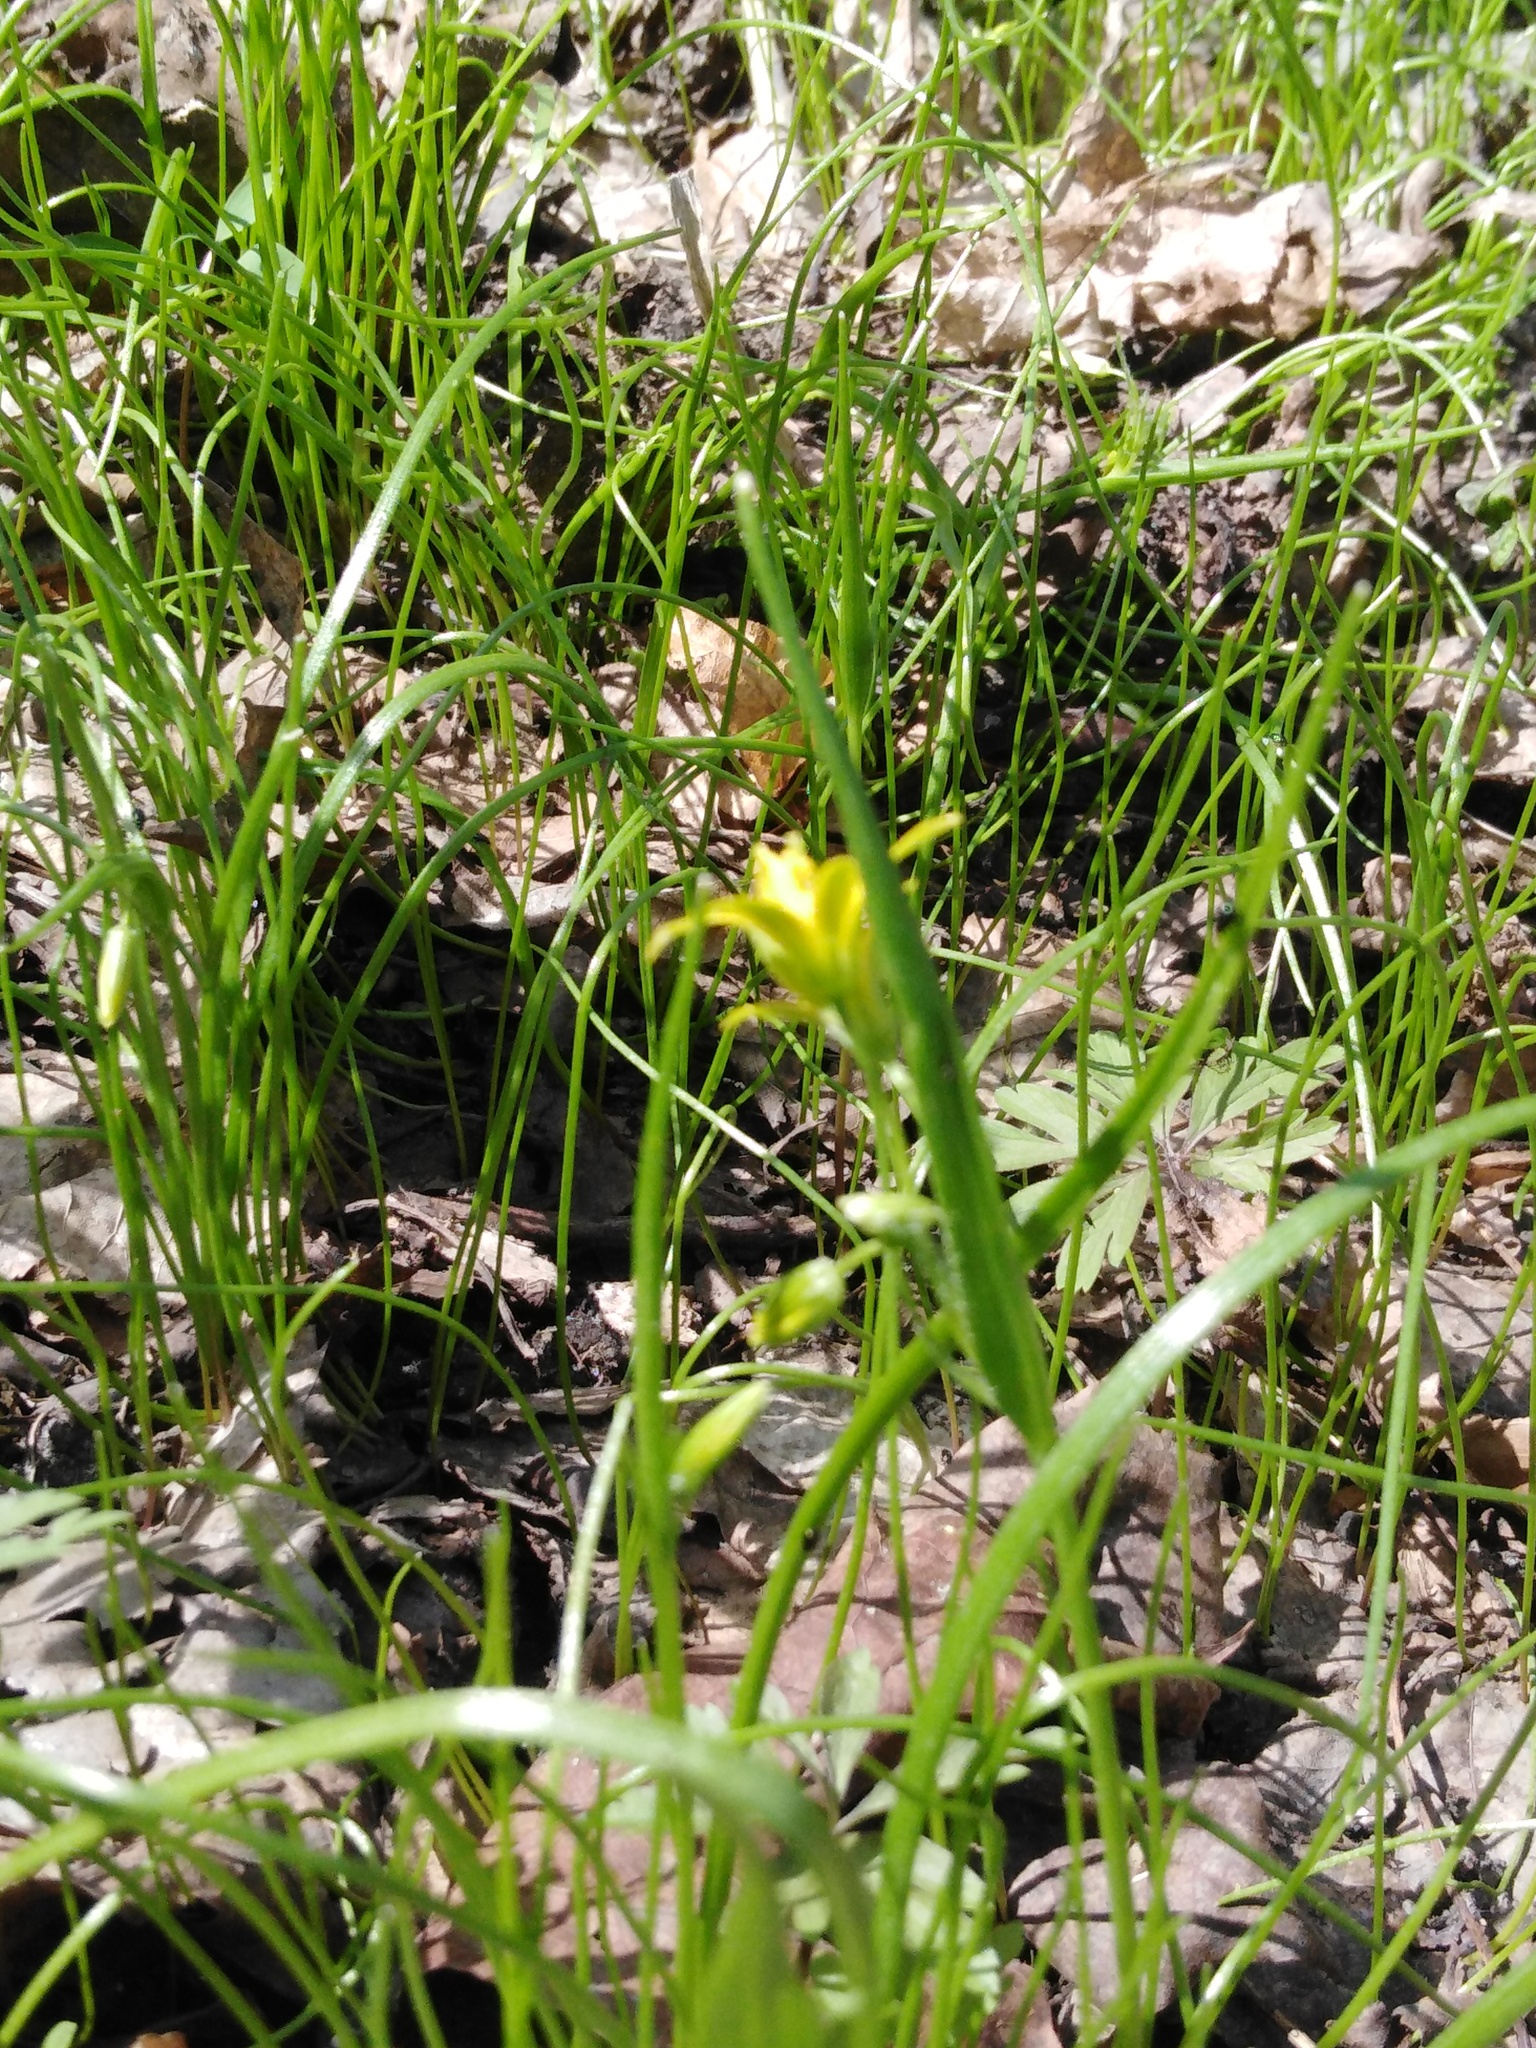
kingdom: Plantae
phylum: Tracheophyta
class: Liliopsida
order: Liliales
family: Liliaceae
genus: Gagea
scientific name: Gagea minima
